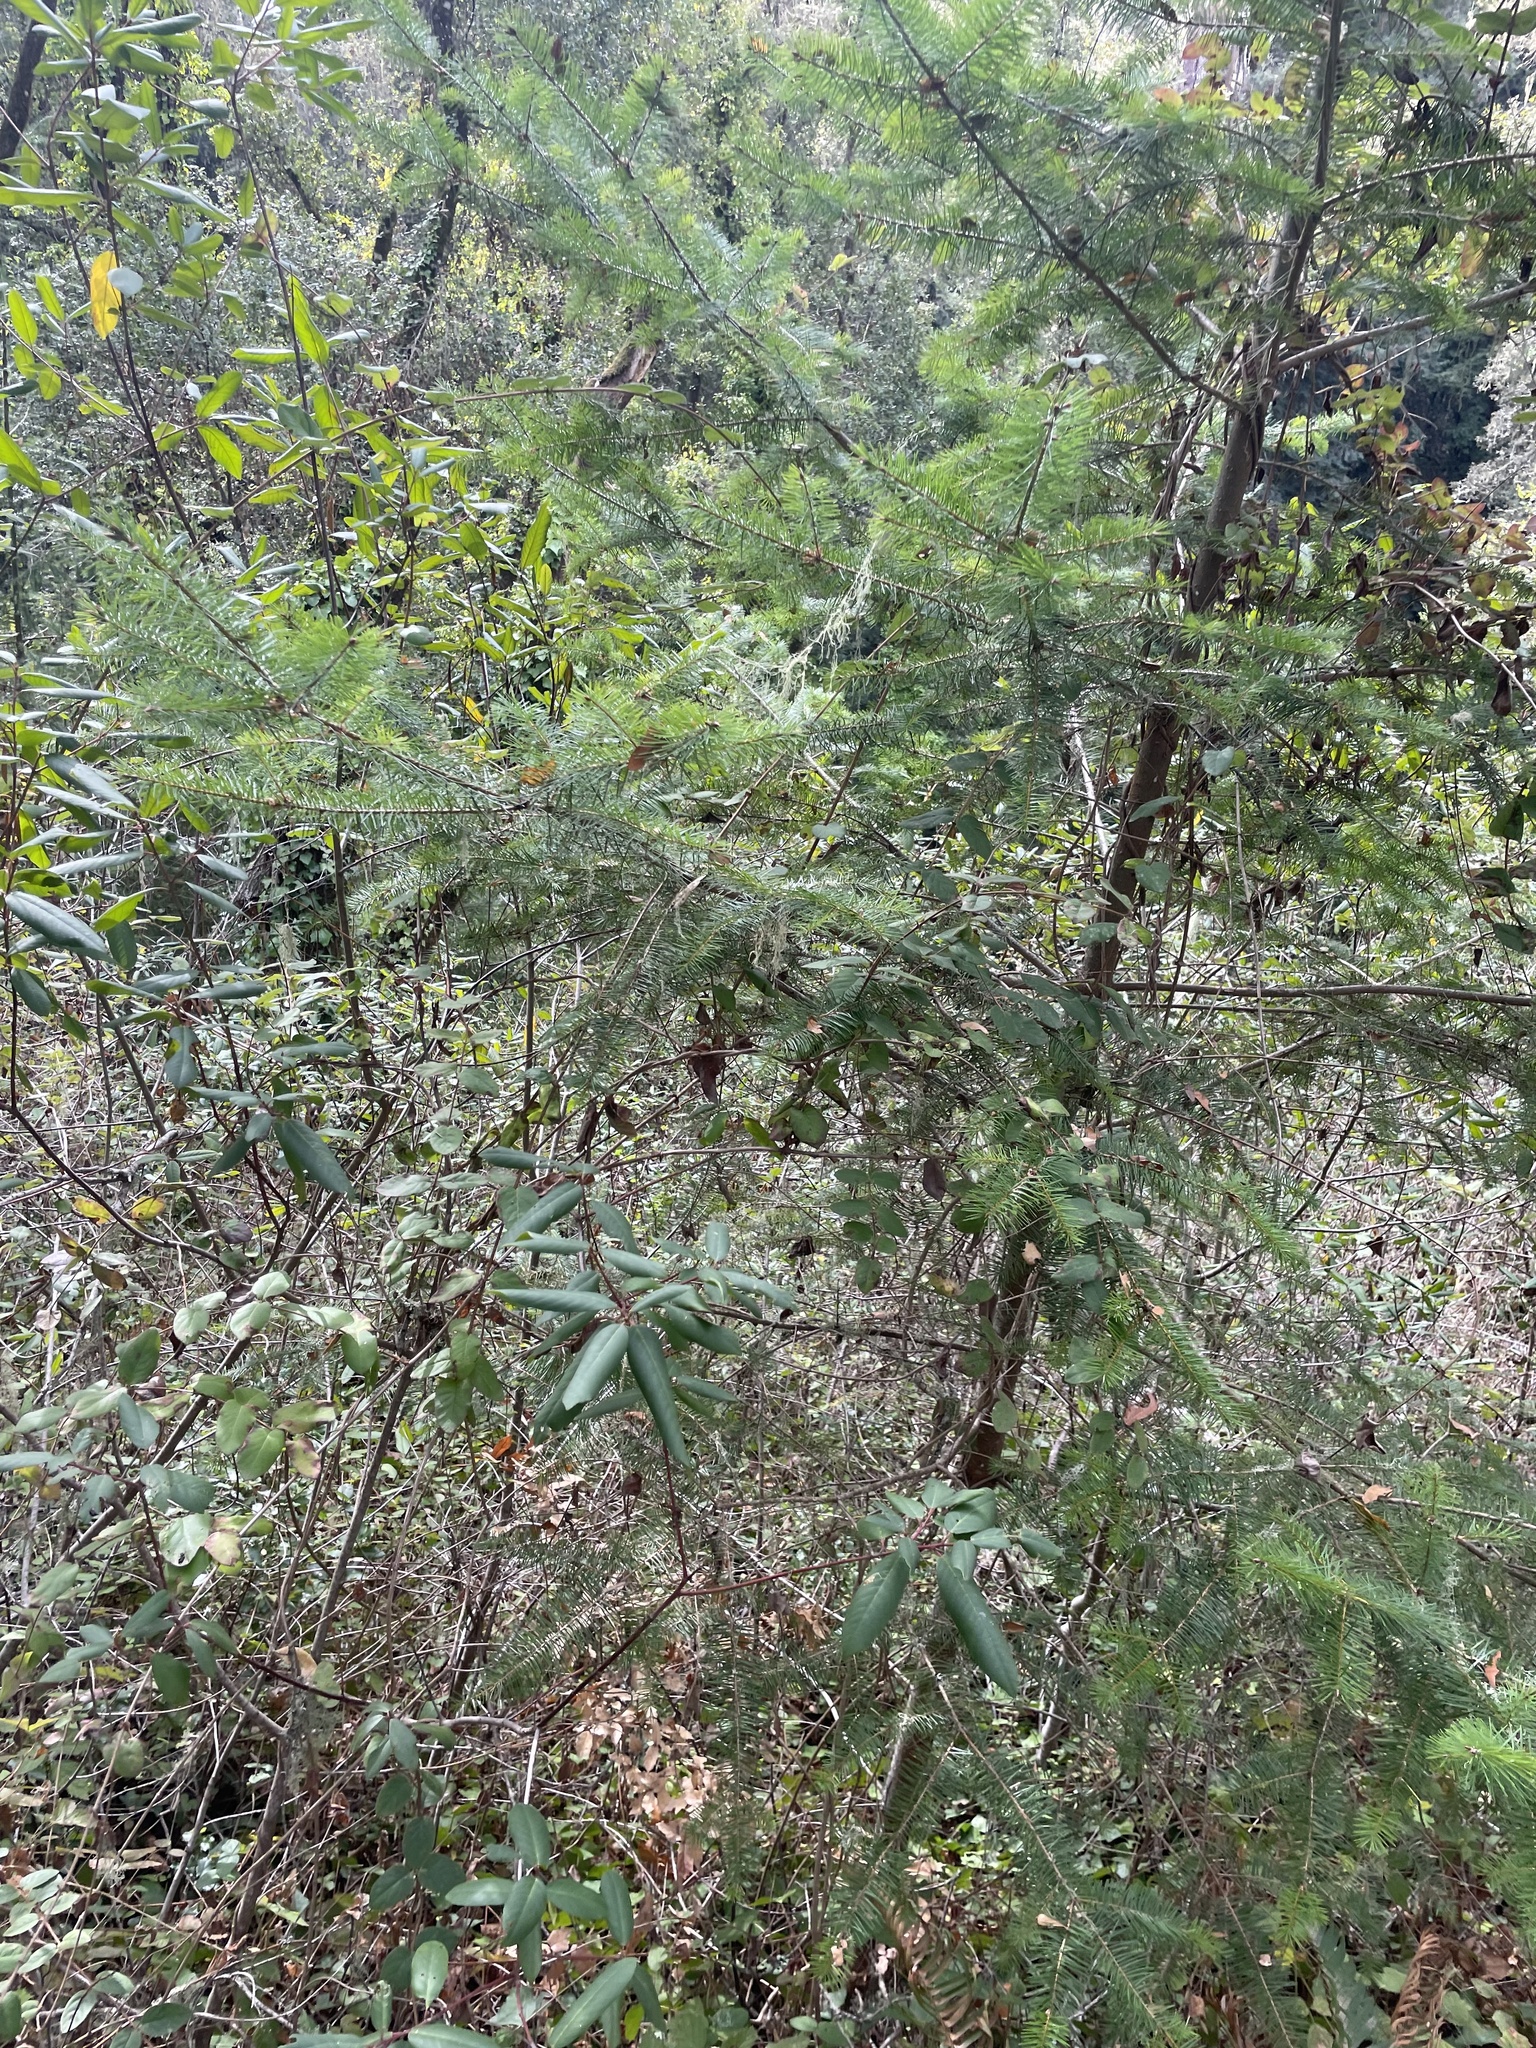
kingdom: Plantae
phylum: Tracheophyta
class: Pinopsida
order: Pinales
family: Pinaceae
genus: Pseudotsuga
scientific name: Pseudotsuga menziesii
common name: Douglas fir
